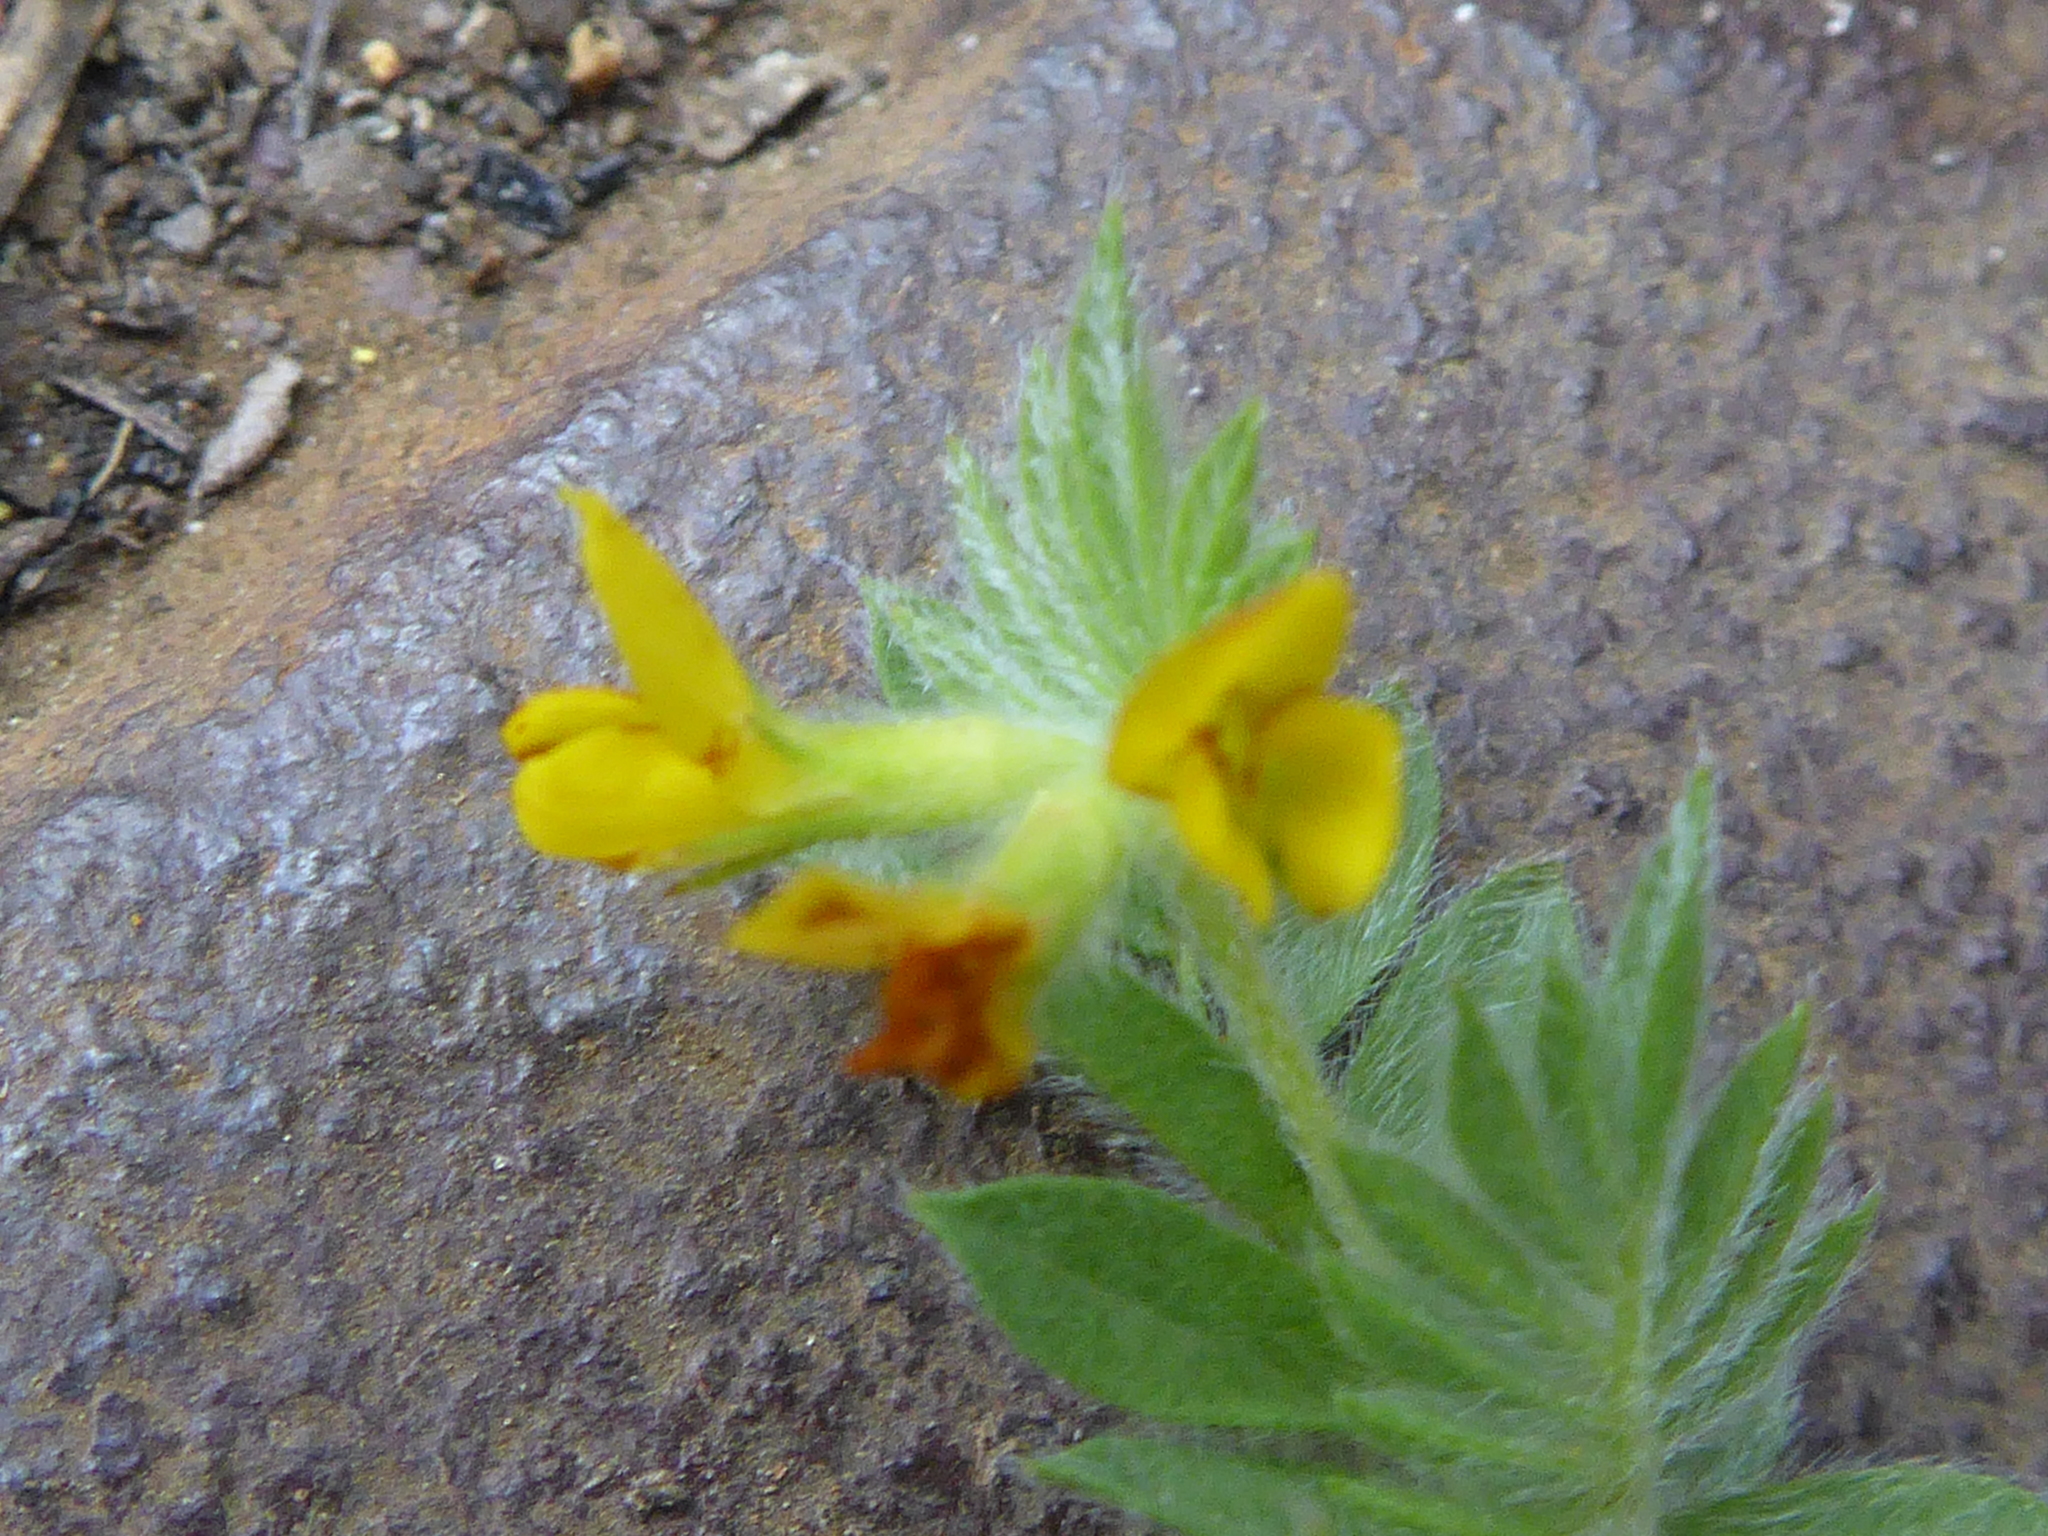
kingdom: Plantae
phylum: Tracheophyta
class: Magnoliopsida
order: Fabales
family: Fabaceae
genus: Ornithopus
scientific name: Ornithopus compressus
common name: Yellow serradella
